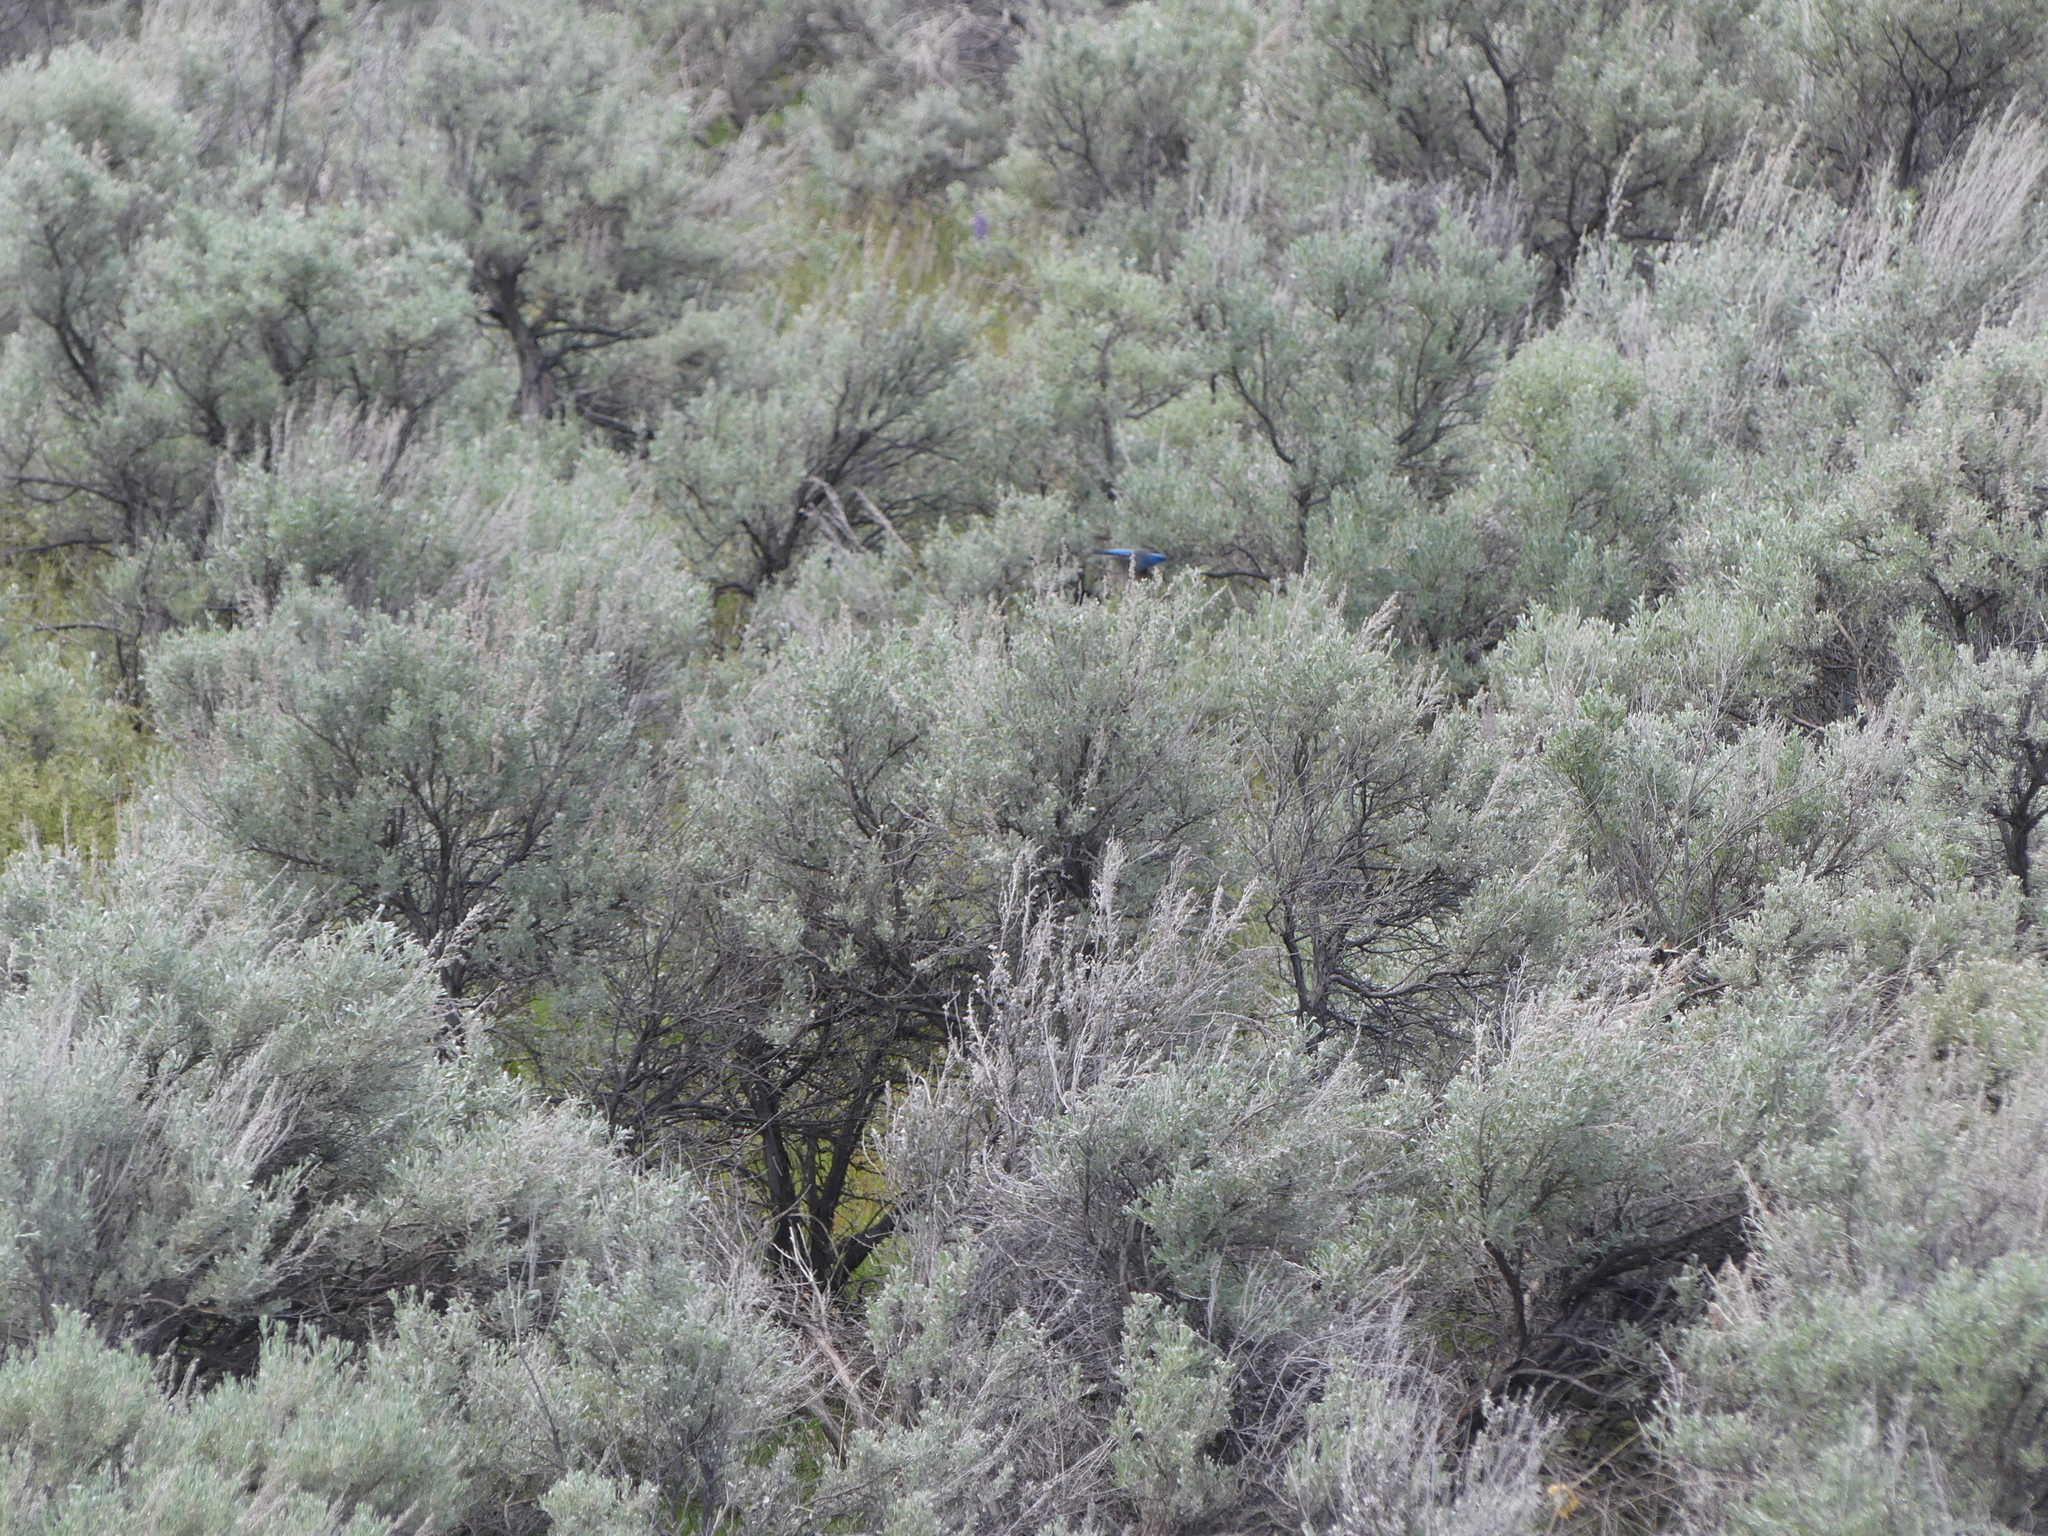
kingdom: Animalia
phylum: Chordata
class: Aves
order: Passeriformes
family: Cardinalidae
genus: Passerina
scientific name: Passerina amoena
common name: Lazuli bunting
